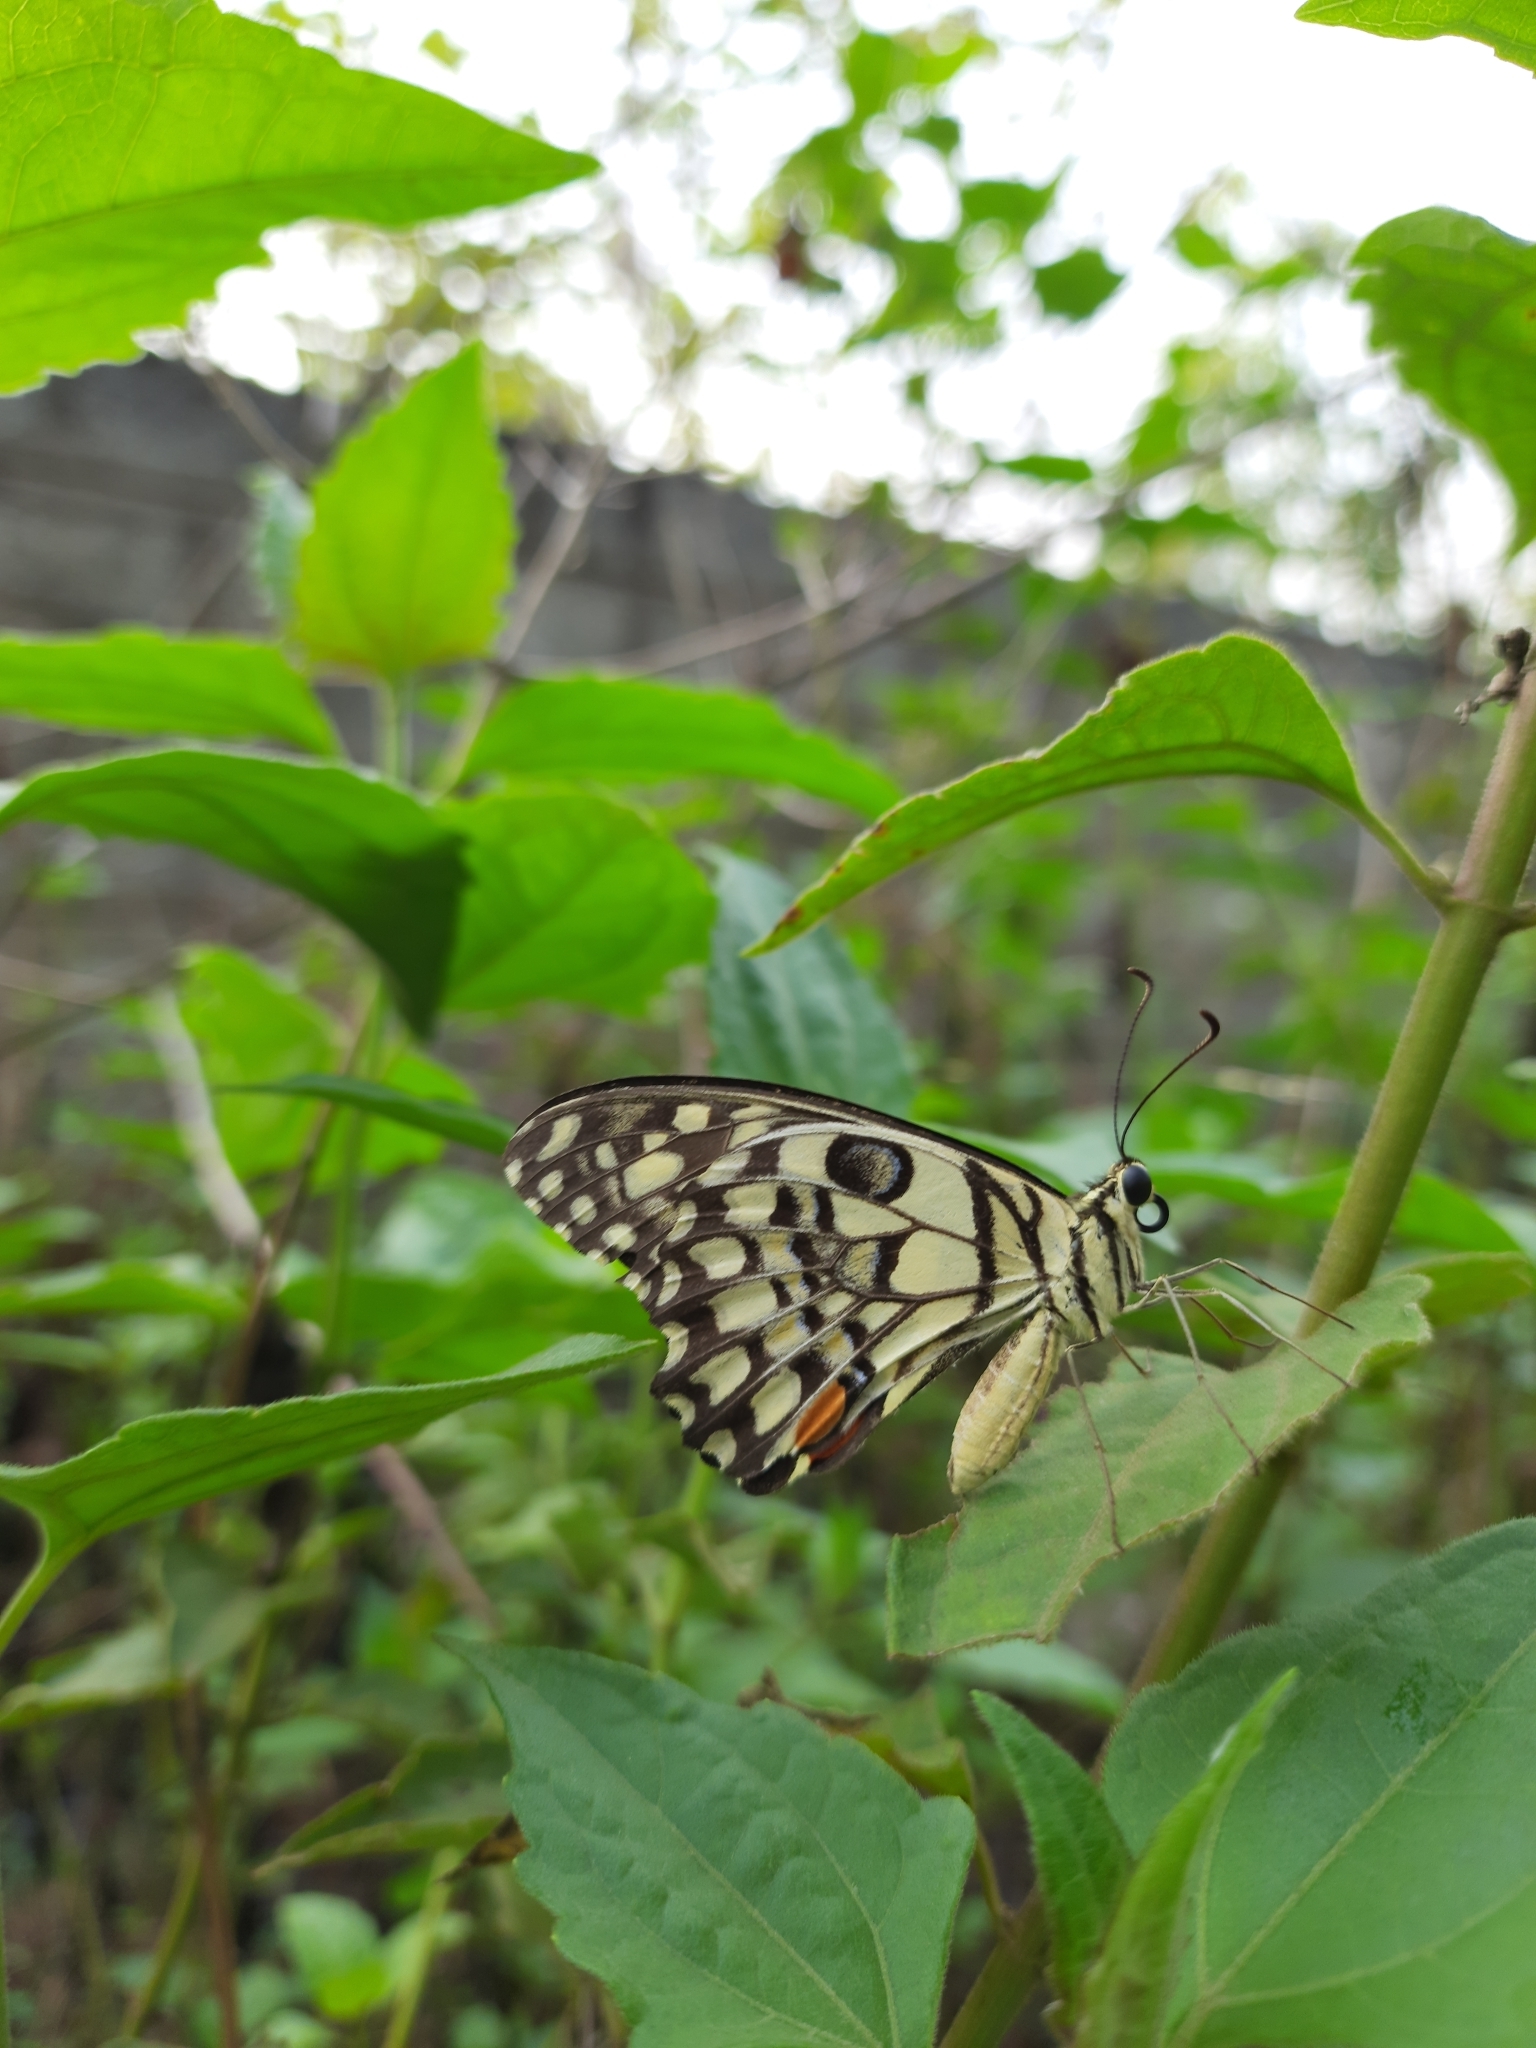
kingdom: Animalia
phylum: Arthropoda
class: Insecta
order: Lepidoptera
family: Papilionidae
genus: Papilio
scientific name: Papilio demoleus
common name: Lime butterfly
